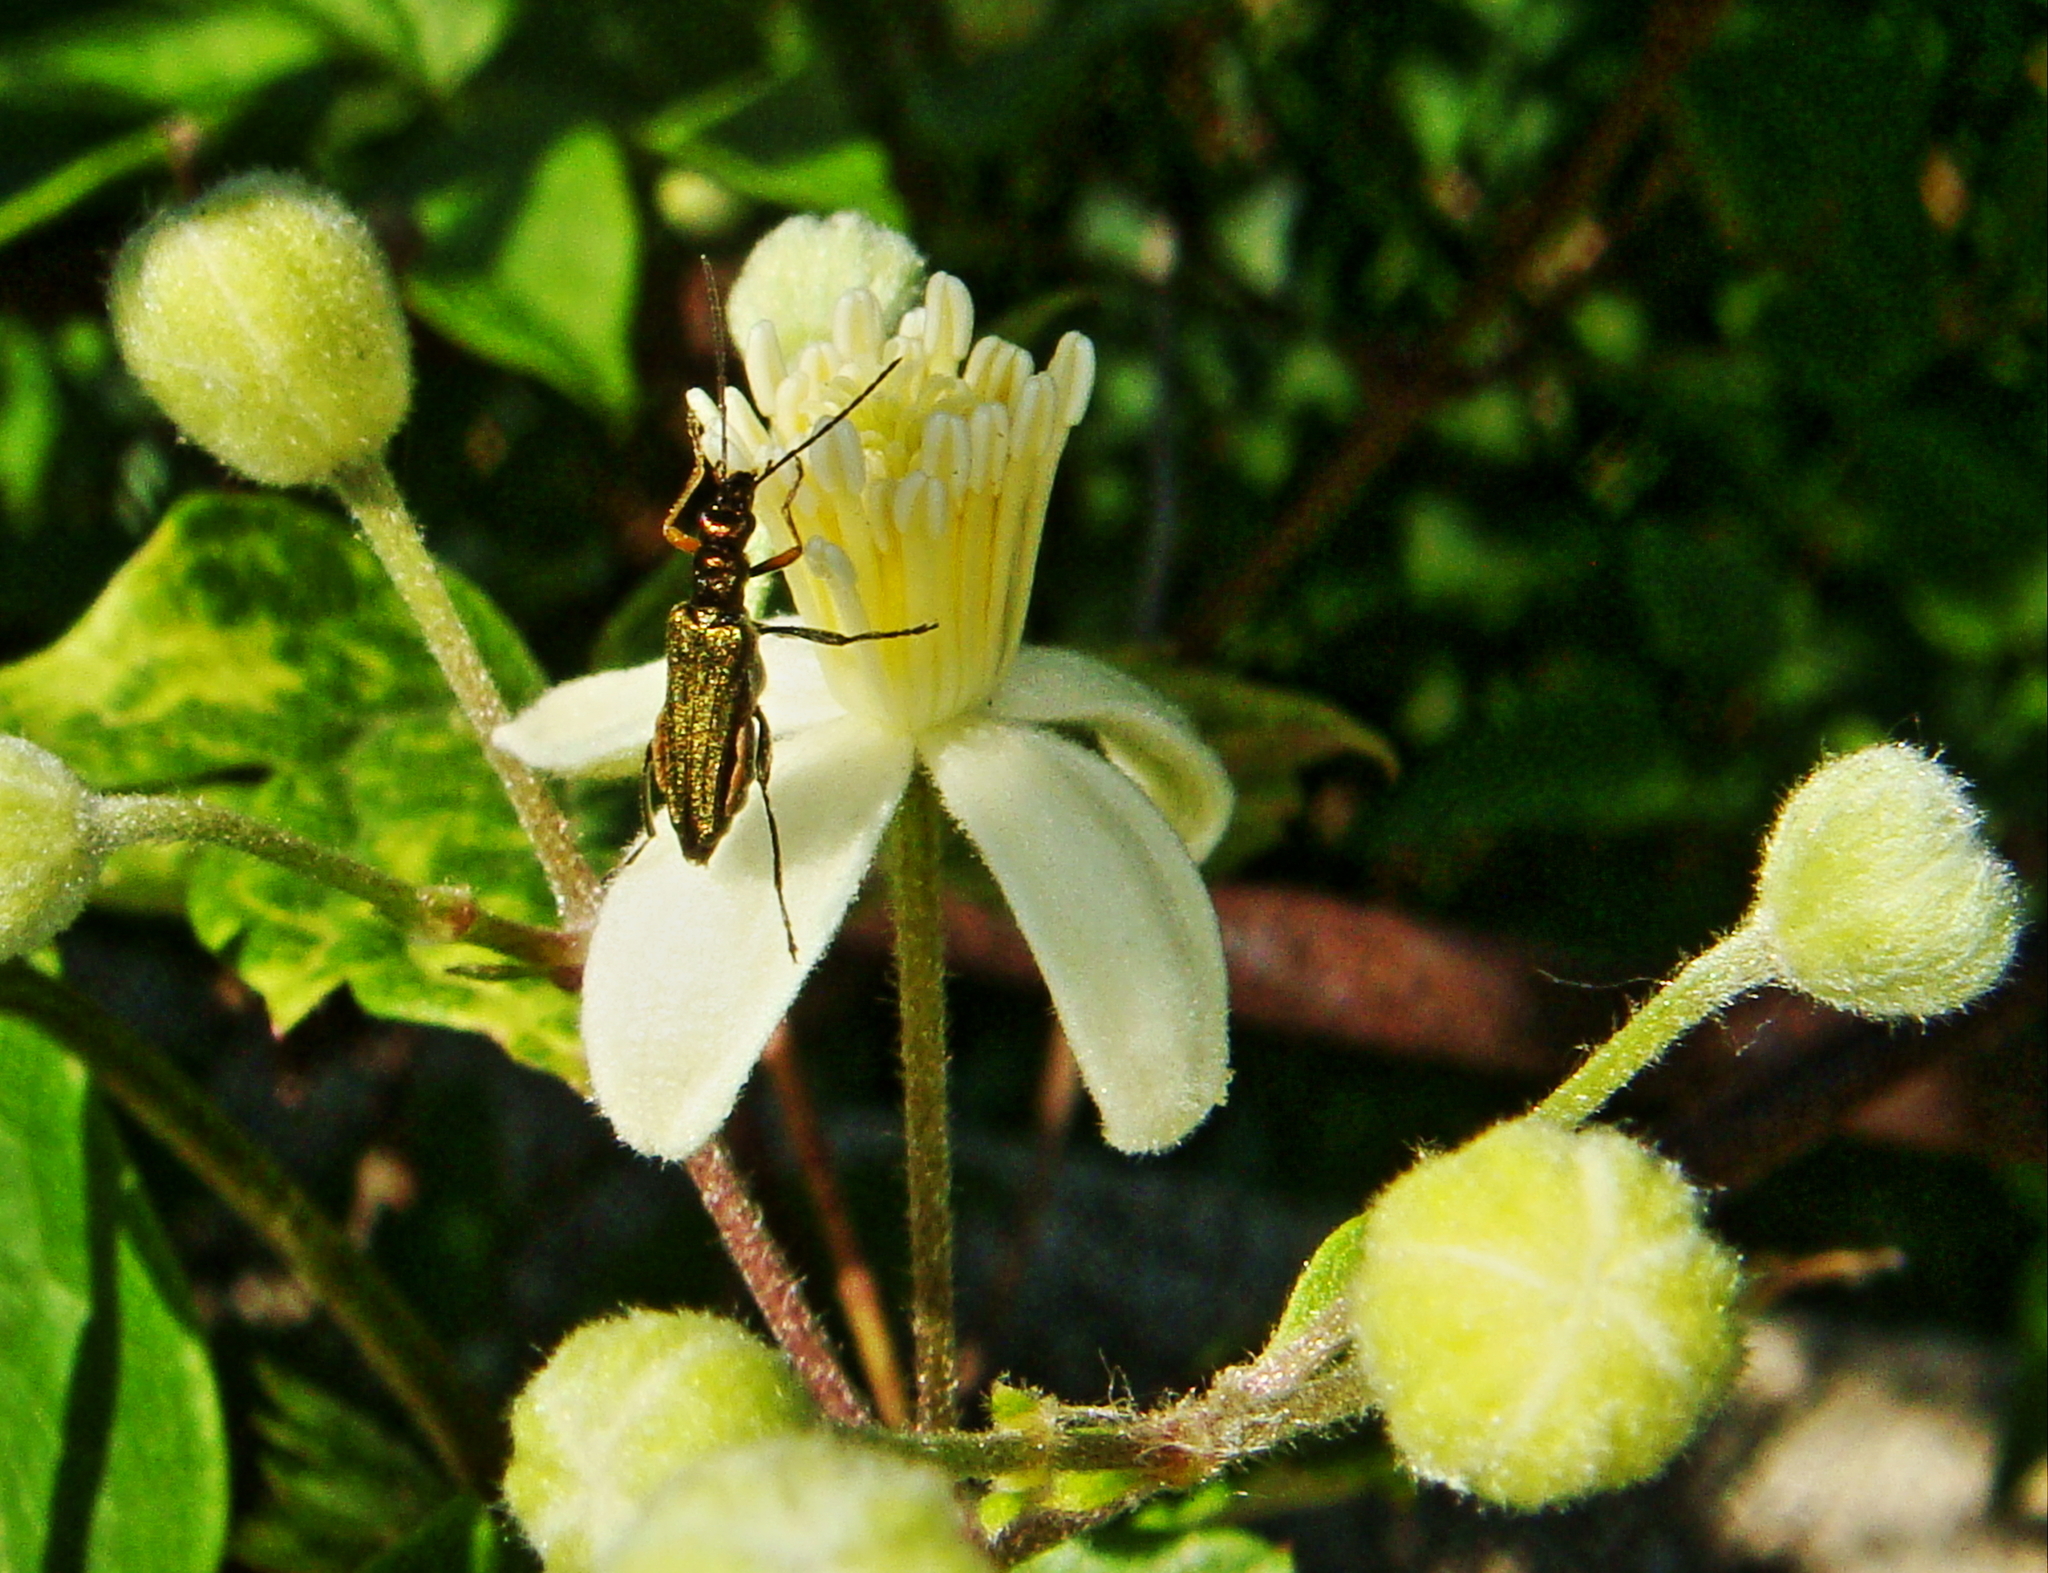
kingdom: Plantae
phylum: Tracheophyta
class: Magnoliopsida
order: Ranunculales
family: Ranunculaceae
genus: Clematis
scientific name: Clematis vitalba
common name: Evergreen clematis
